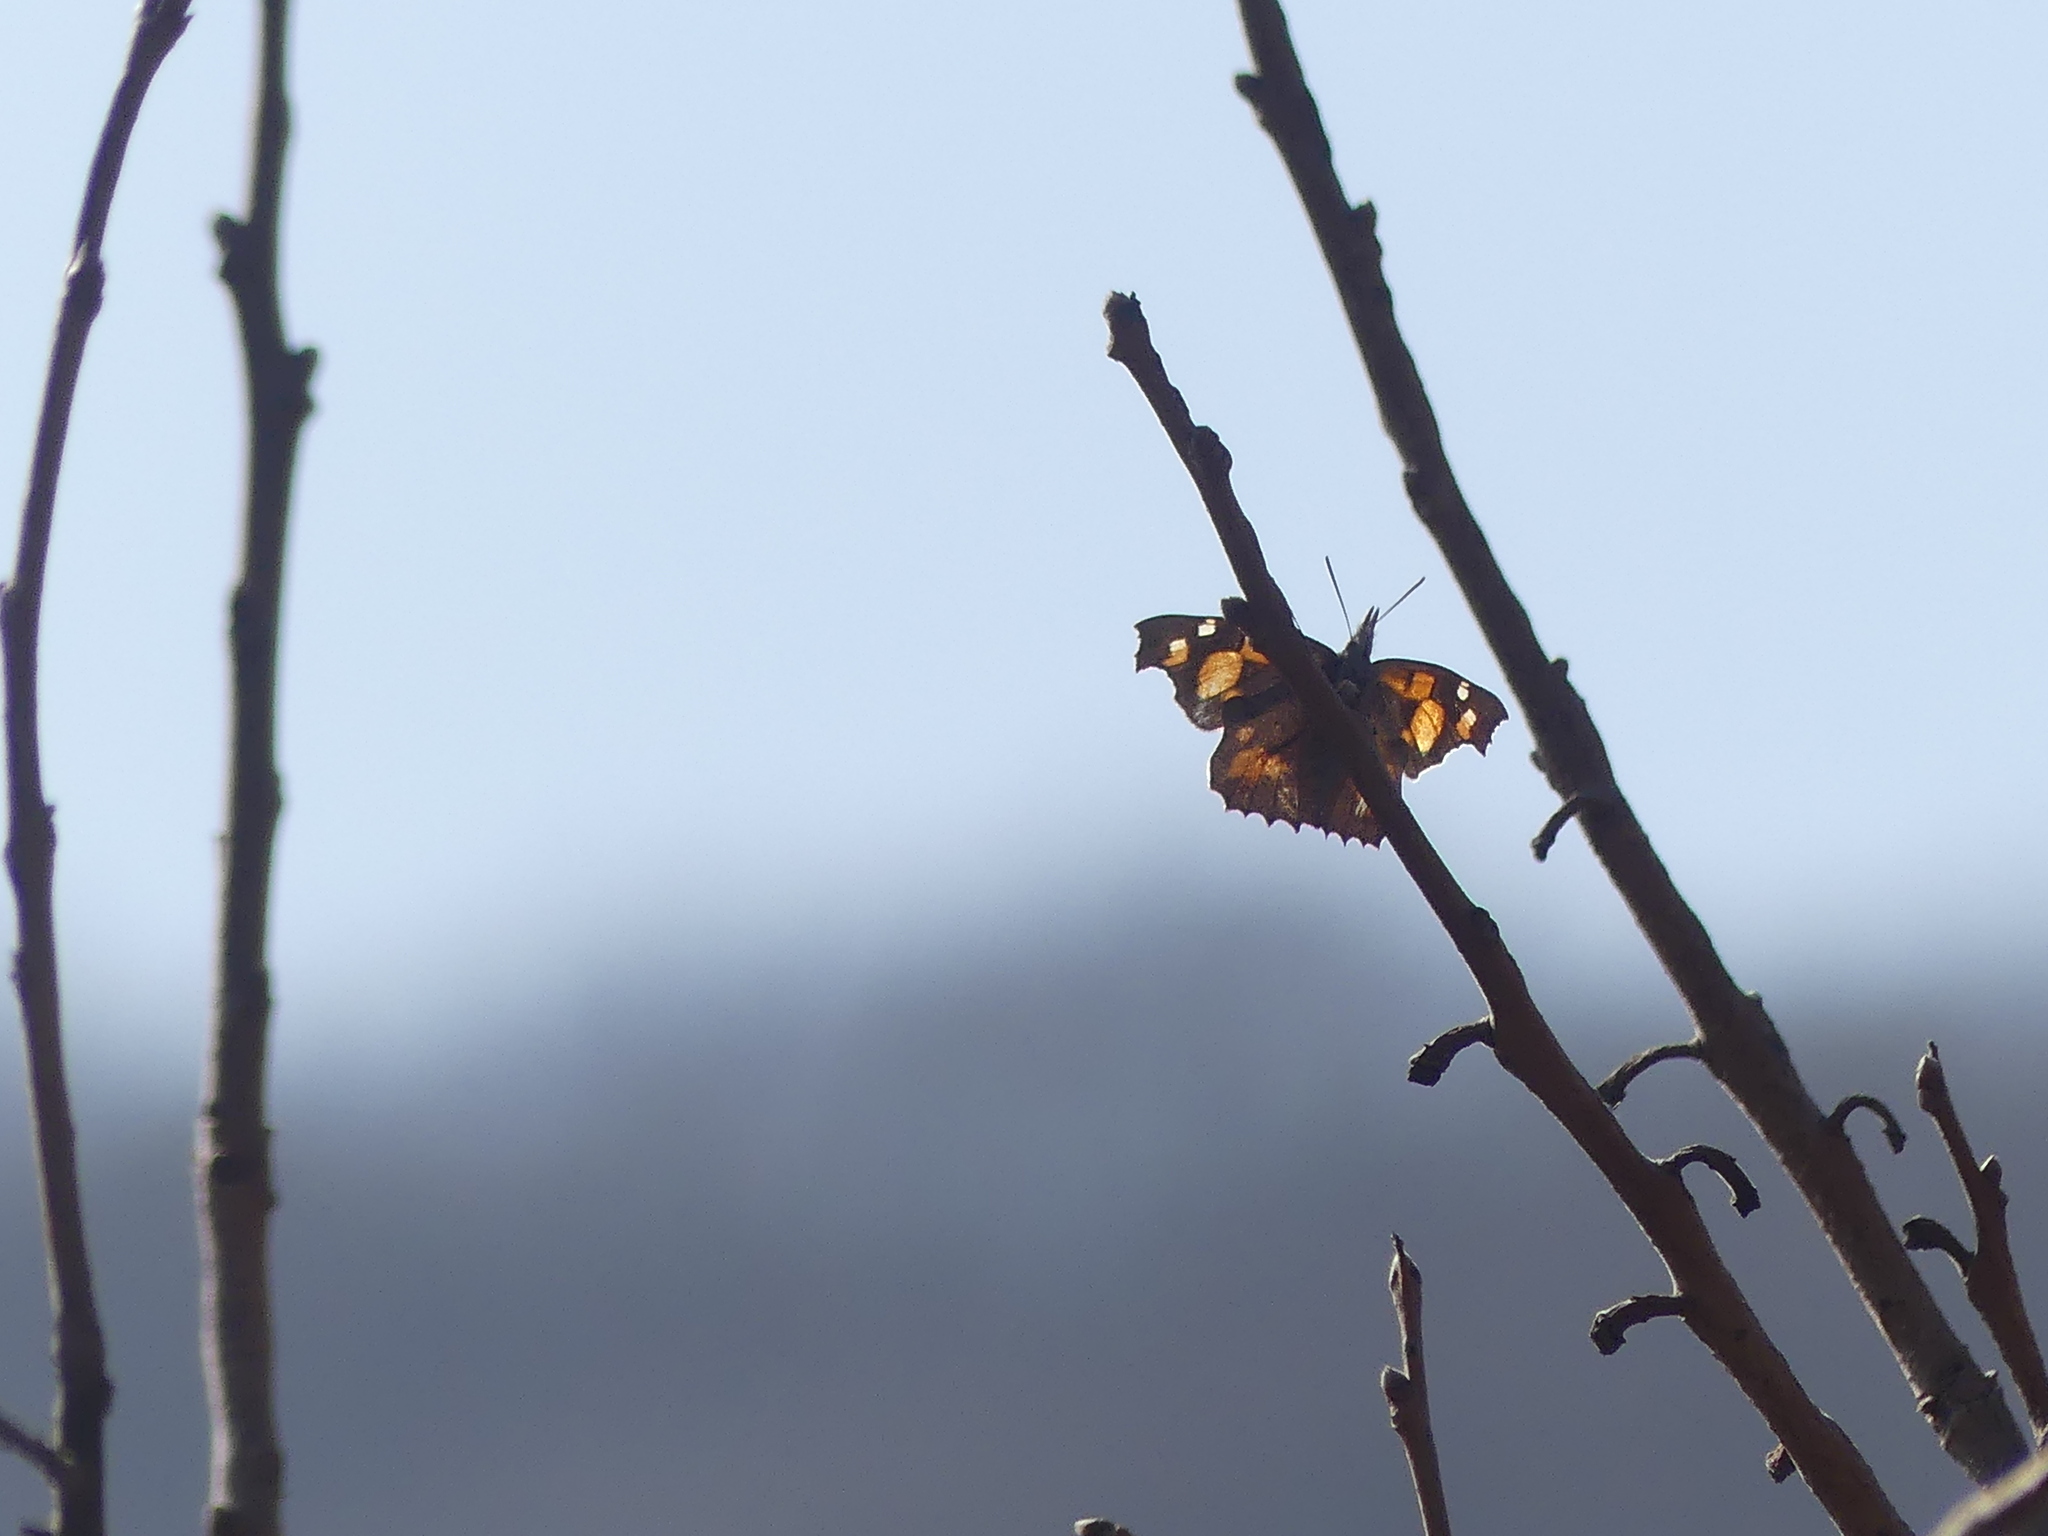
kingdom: Animalia
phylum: Arthropoda
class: Insecta
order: Lepidoptera
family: Nymphalidae
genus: Libythea
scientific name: Libythea celtis
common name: Nettle-tree butterfly
